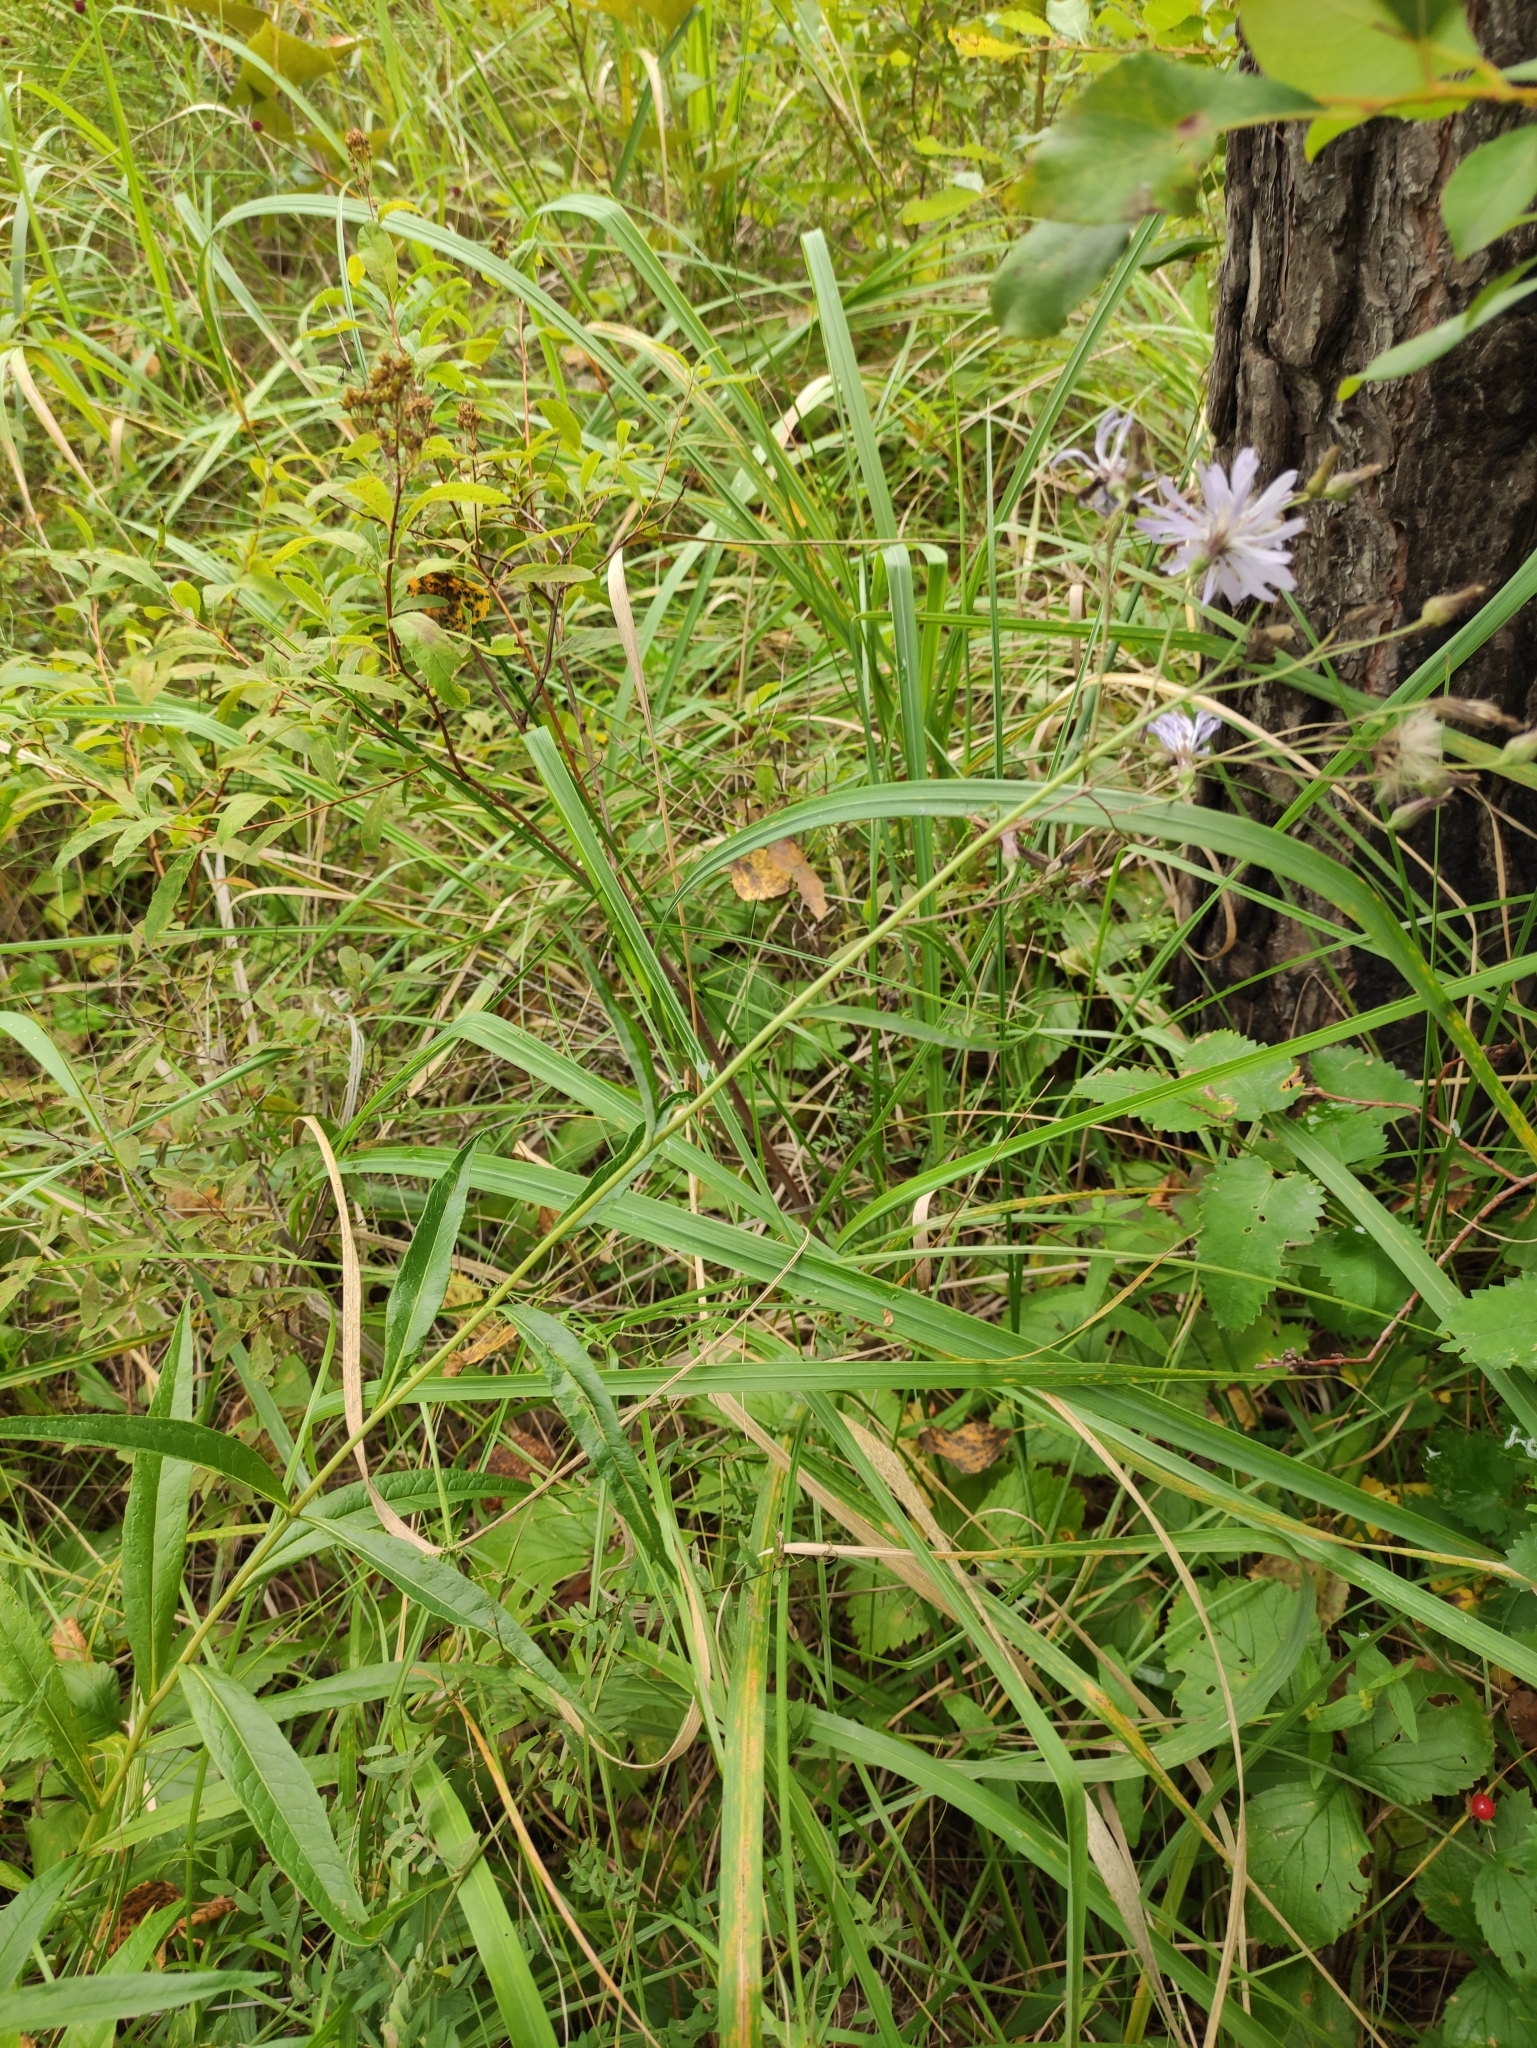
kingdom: Plantae
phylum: Tracheophyta
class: Magnoliopsida
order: Asterales
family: Asteraceae
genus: Lactuca
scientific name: Lactuca sibirica
